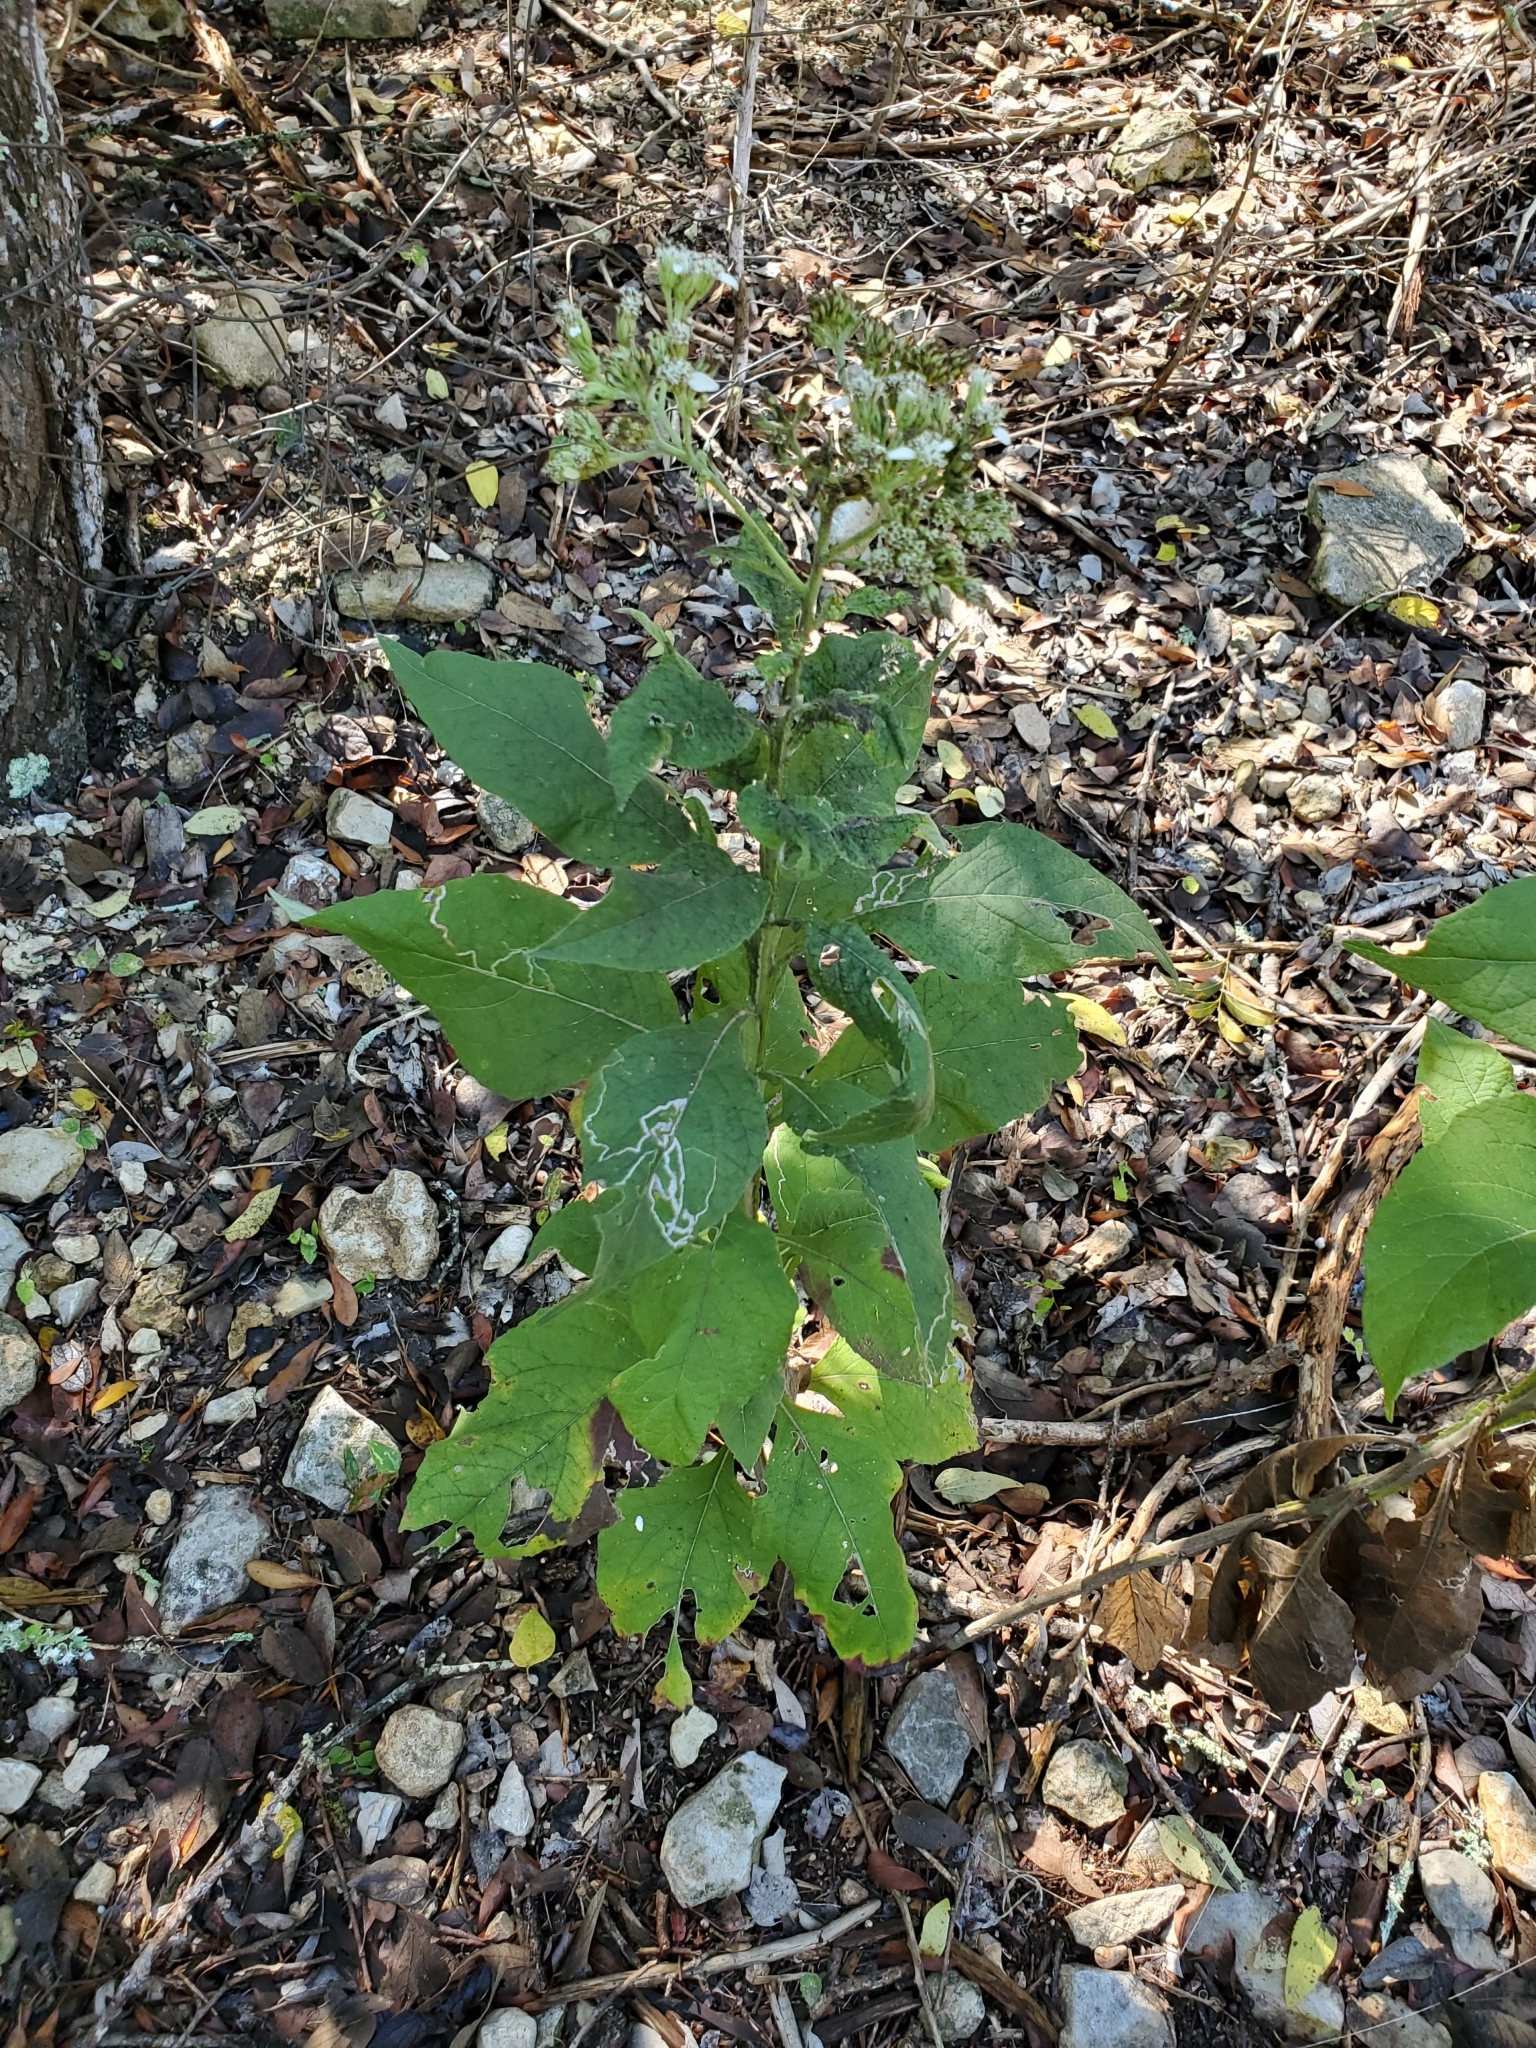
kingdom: Plantae
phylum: Tracheophyta
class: Magnoliopsida
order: Asterales
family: Asteraceae
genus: Verbesina
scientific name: Verbesina virginica
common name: Frostweed
